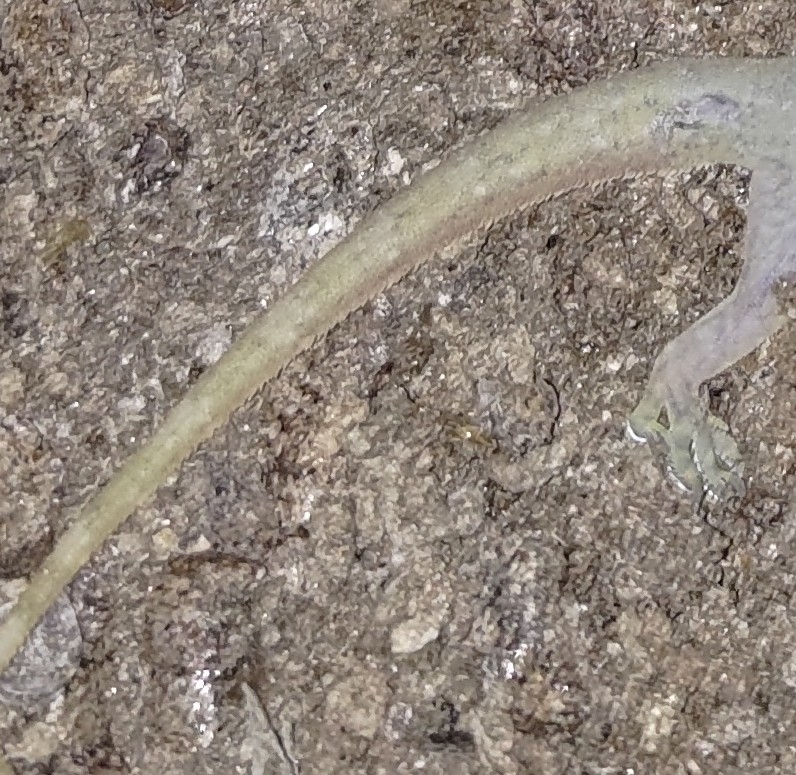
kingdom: Animalia
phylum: Chordata
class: Squamata
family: Gekkonidae
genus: Hemidactylus
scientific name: Hemidactylus stejnegeri
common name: Stejneger's leaftoed gecko
